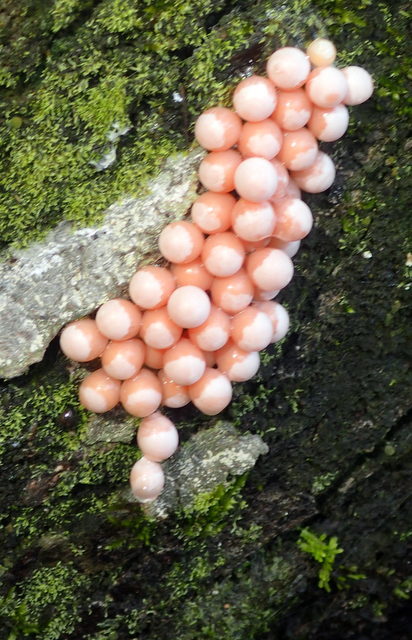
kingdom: Animalia
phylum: Mollusca
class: Gastropoda
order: Architaenioglossa
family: Ampullariidae
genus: Pomacea
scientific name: Pomacea paludosa
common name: Florida applesnail
